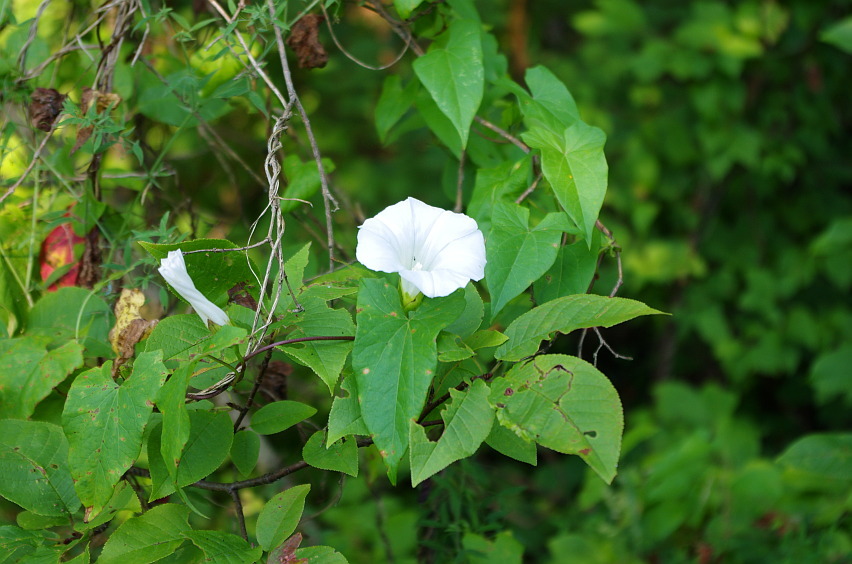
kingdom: Plantae
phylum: Tracheophyta
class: Magnoliopsida
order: Solanales
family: Convolvulaceae
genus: Calystegia
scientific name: Calystegia sepium
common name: Hedge bindweed
